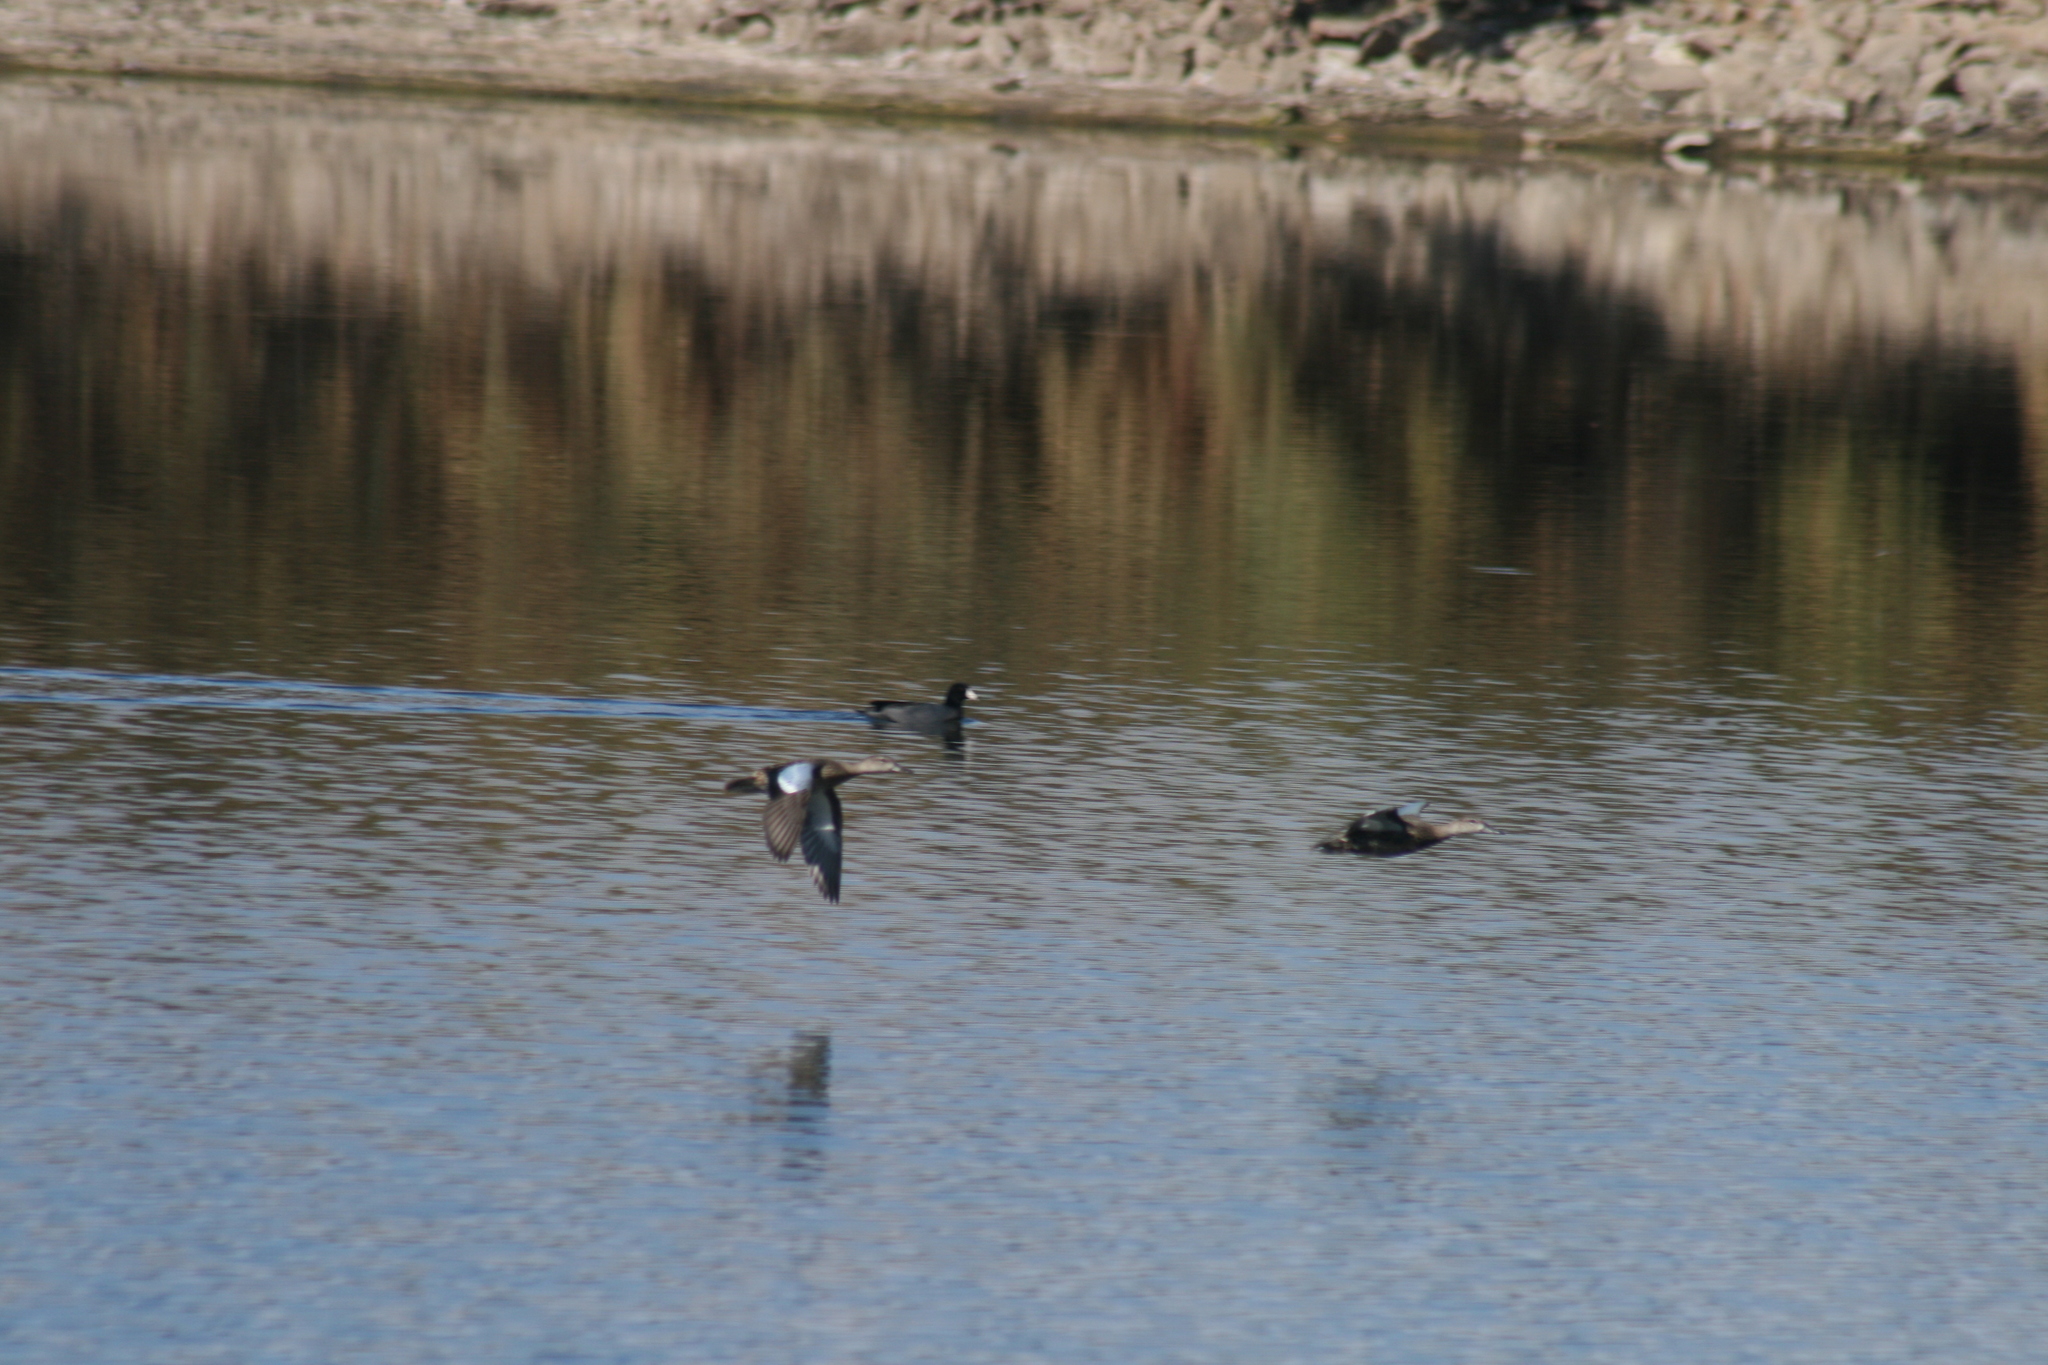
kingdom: Animalia
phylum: Chordata
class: Aves
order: Anseriformes
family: Anatidae
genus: Spatula
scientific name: Spatula discors
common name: Blue-winged teal
